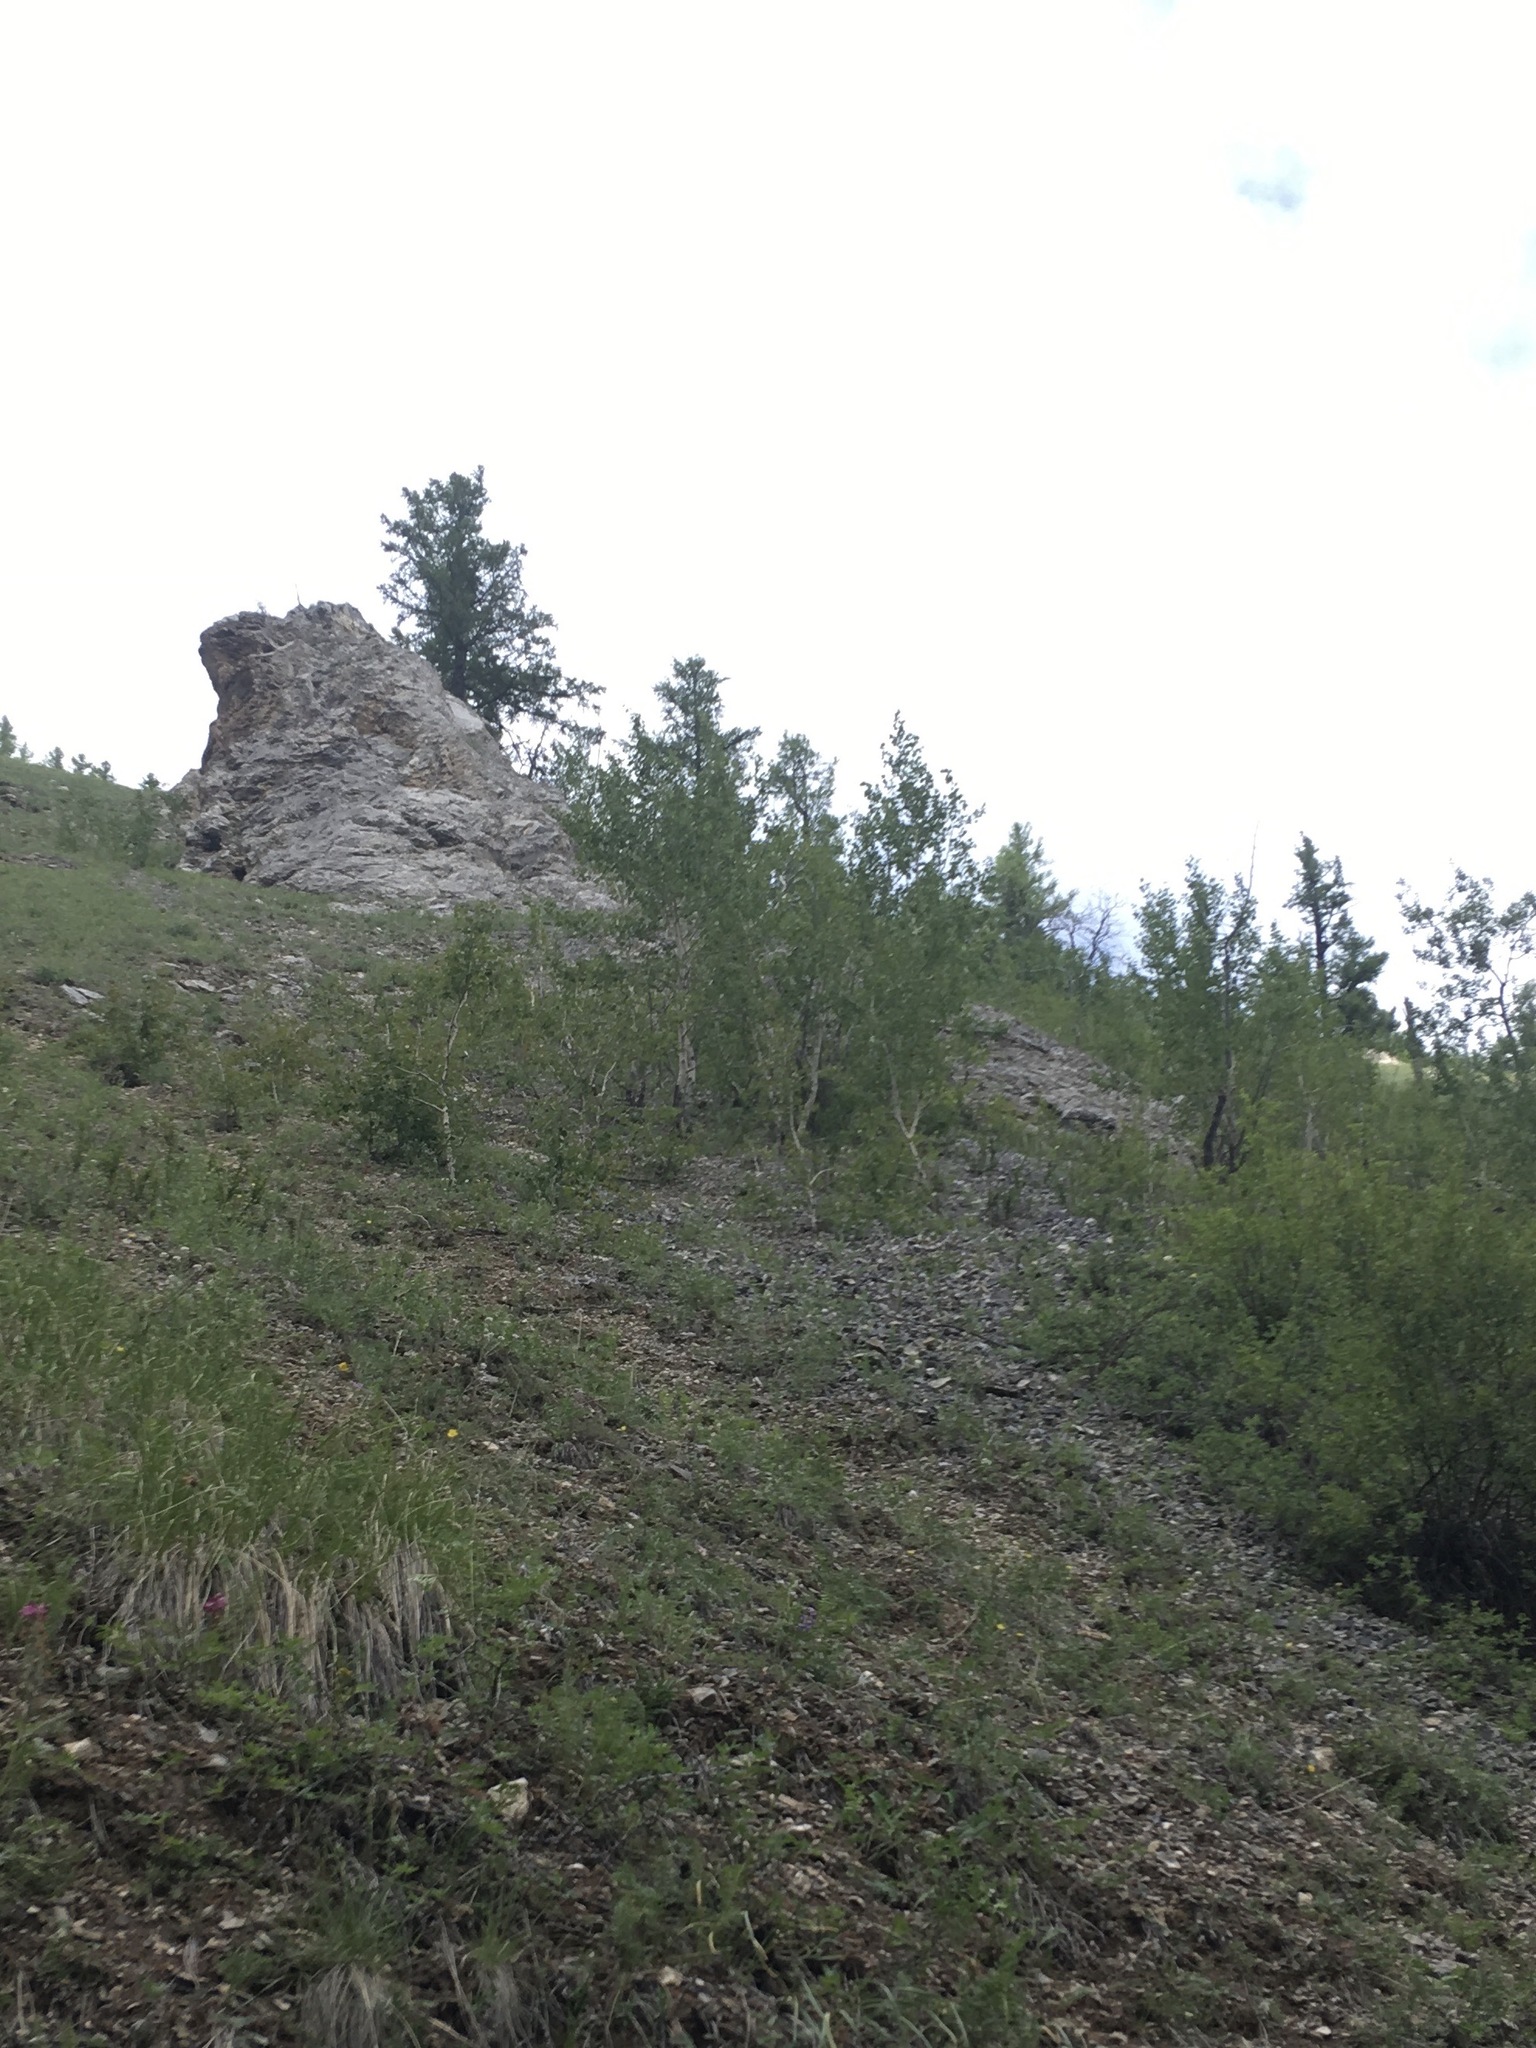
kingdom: Plantae
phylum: Tracheophyta
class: Magnoliopsida
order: Malpighiales
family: Salicaceae
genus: Populus
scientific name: Populus tremula
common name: European aspen
